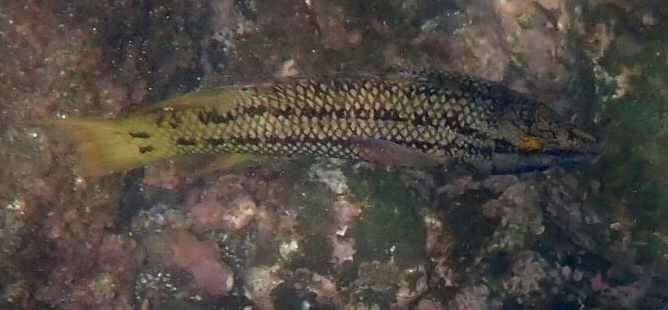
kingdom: Animalia
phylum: Chordata
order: Perciformes
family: Labridae
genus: Bodianus
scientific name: Bodianus diplotaenia
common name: Mexican hogfish
